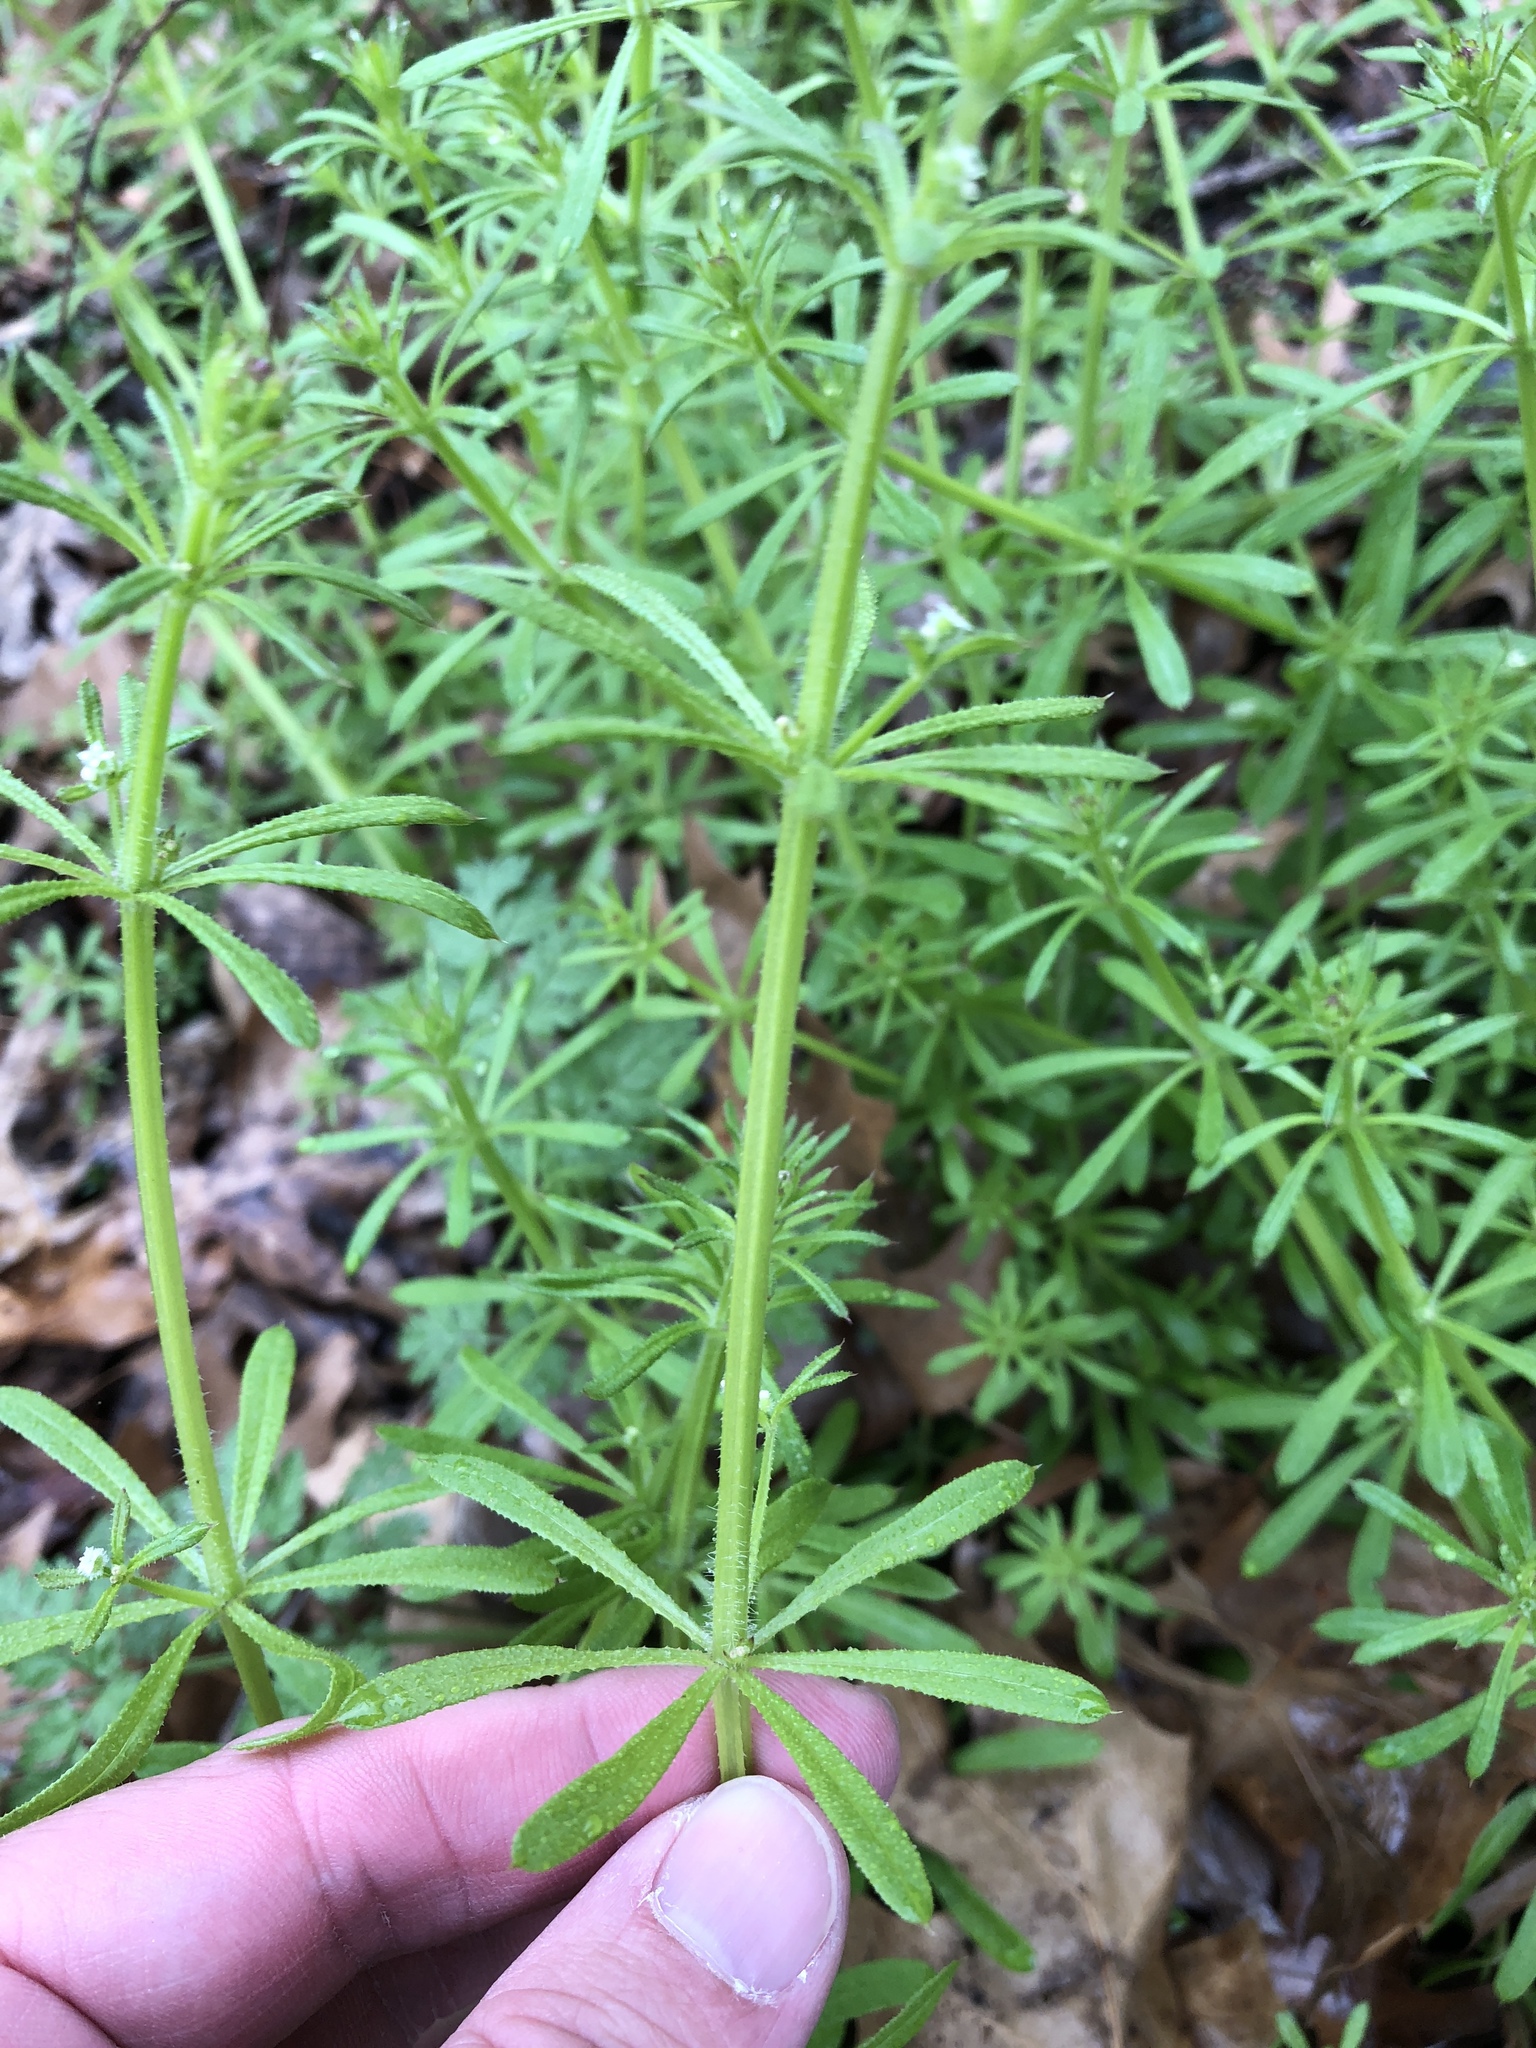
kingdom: Plantae
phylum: Tracheophyta
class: Magnoliopsida
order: Gentianales
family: Rubiaceae
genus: Galium
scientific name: Galium aparine
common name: Cleavers
